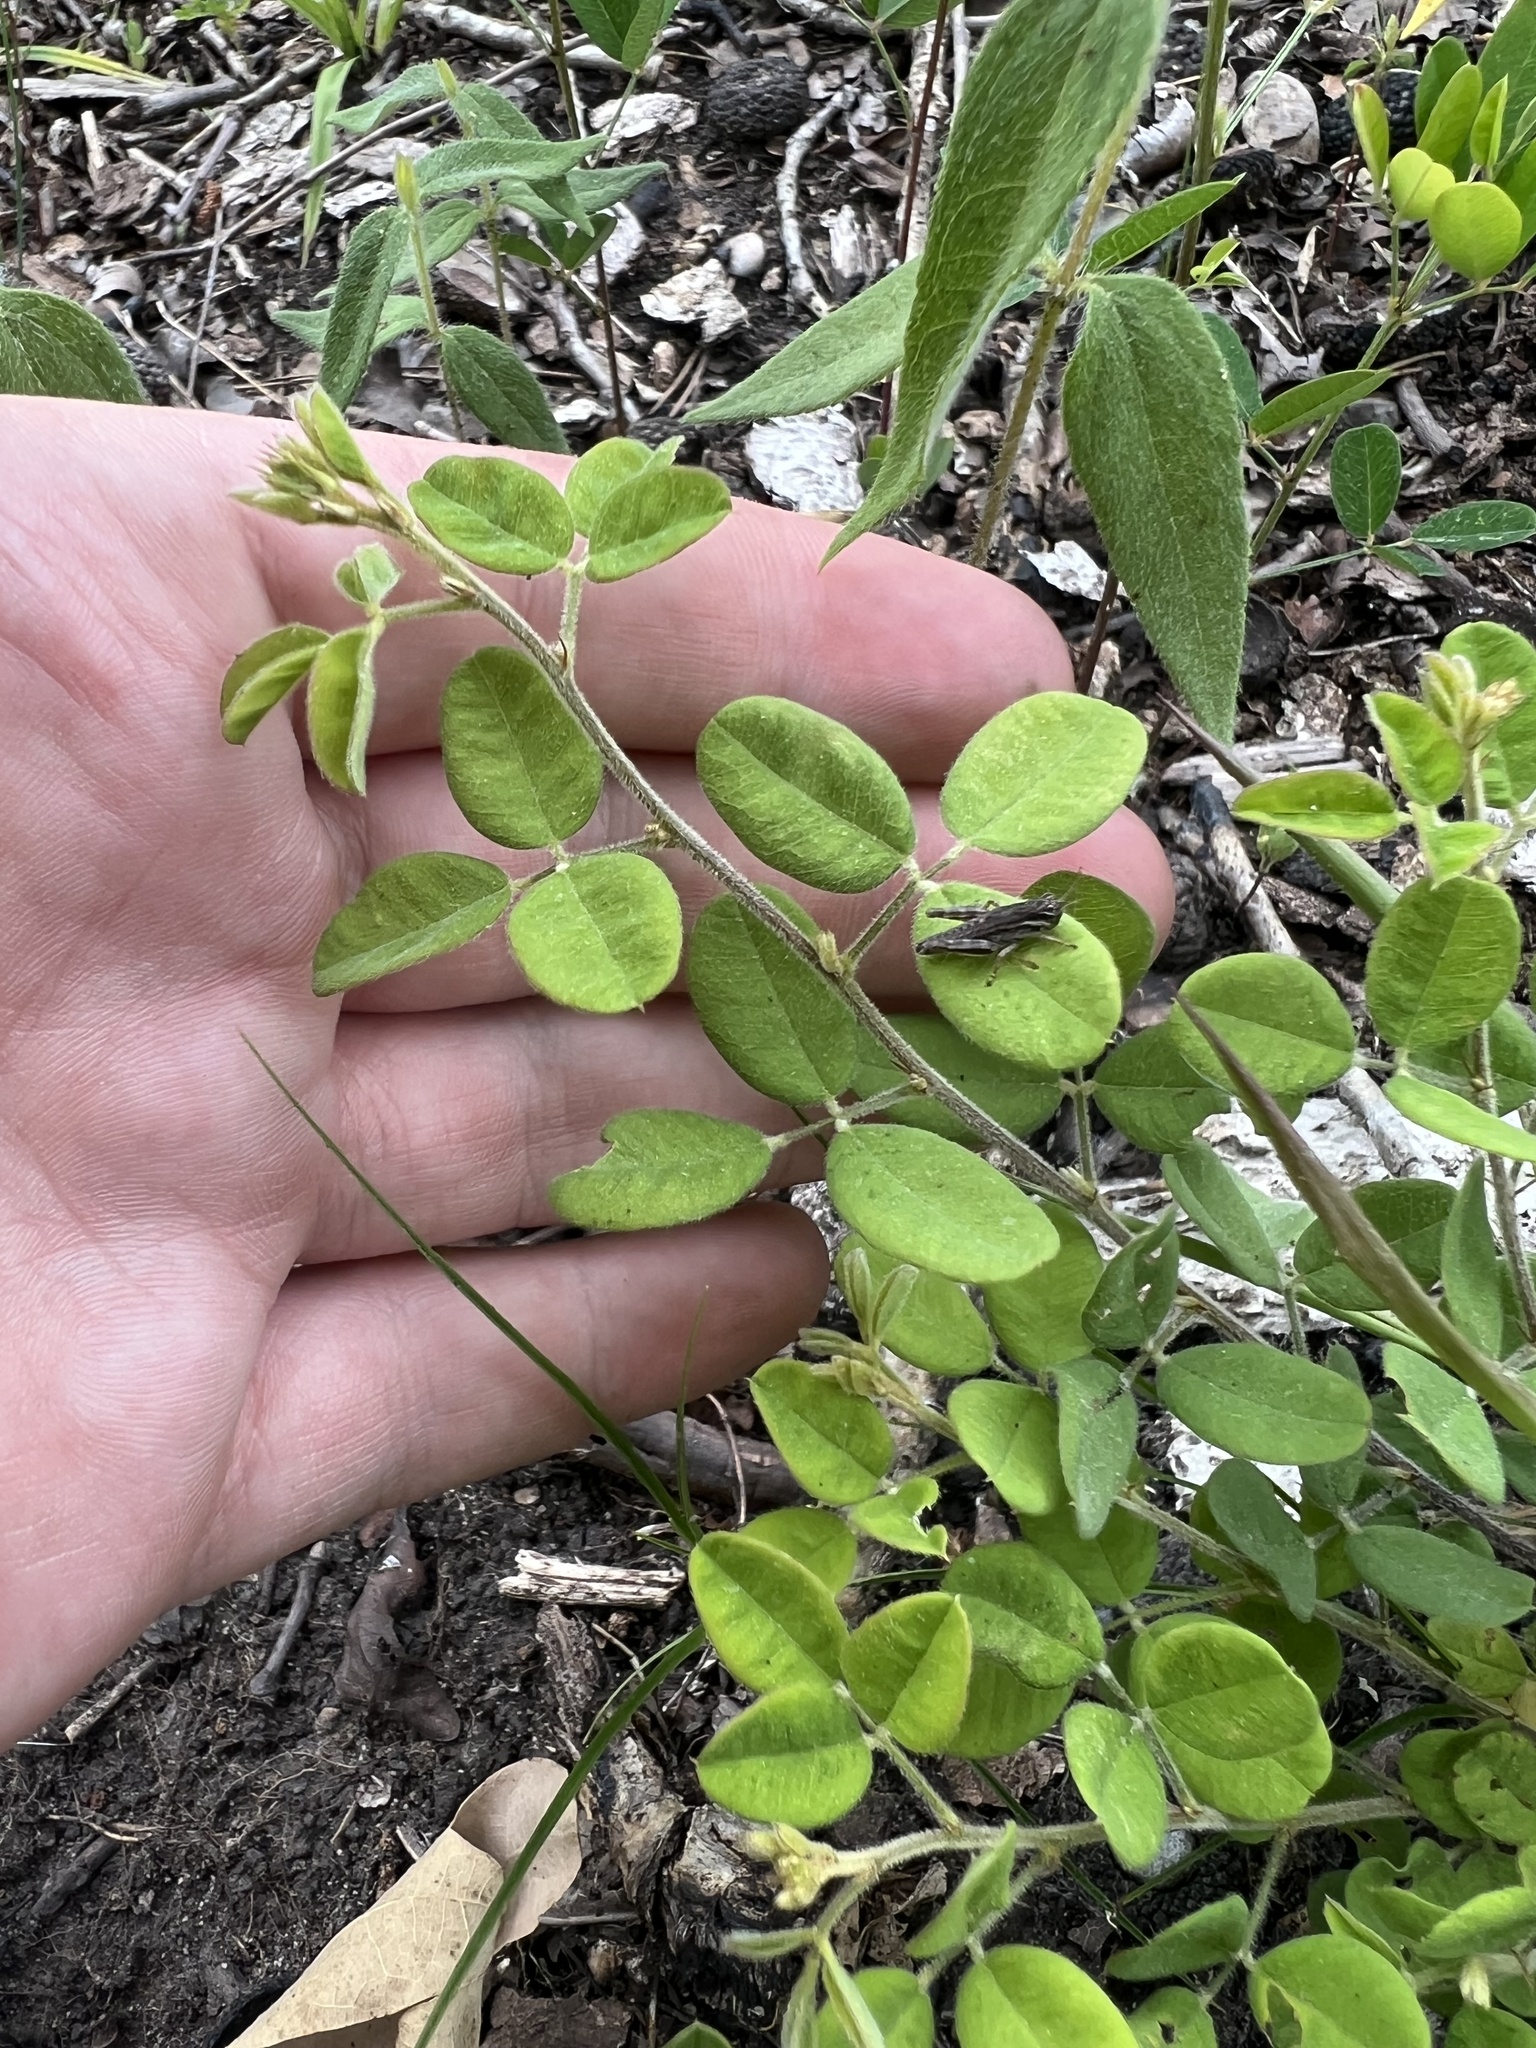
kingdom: Plantae
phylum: Tracheophyta
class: Magnoliopsida
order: Fabales
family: Fabaceae
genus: Lespedeza
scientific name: Lespedeza hirta
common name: Hairy lespedeza
